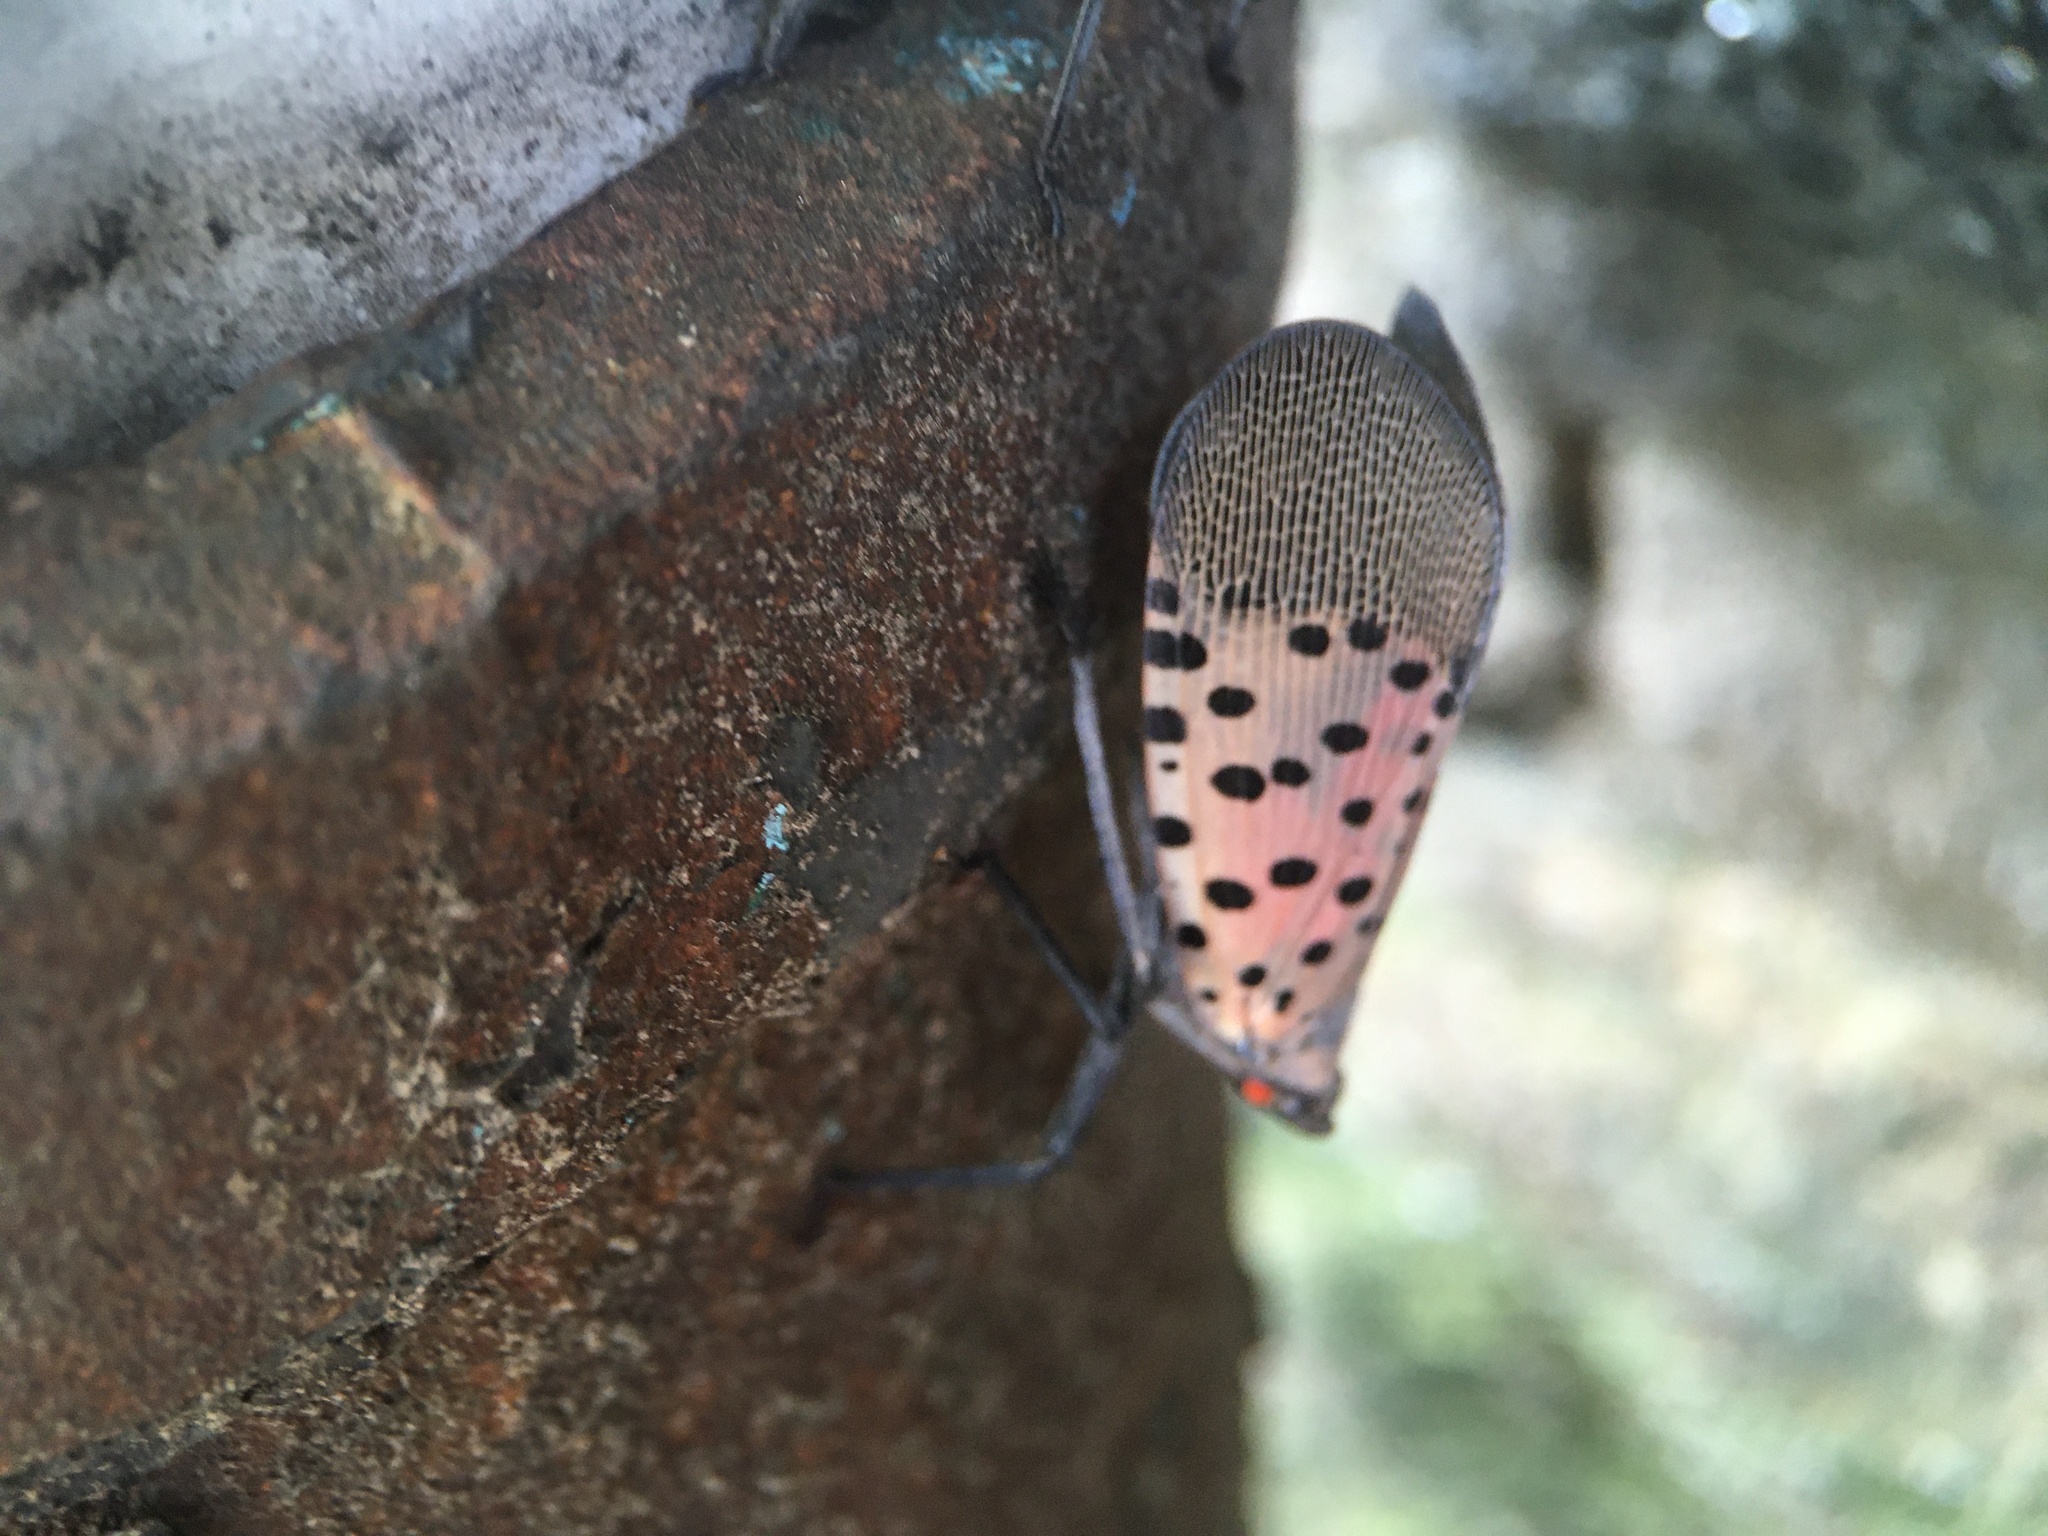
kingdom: Animalia
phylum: Arthropoda
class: Insecta
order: Hemiptera
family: Fulgoridae
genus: Lycorma
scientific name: Lycorma delicatula
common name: Spotted lanternfly
